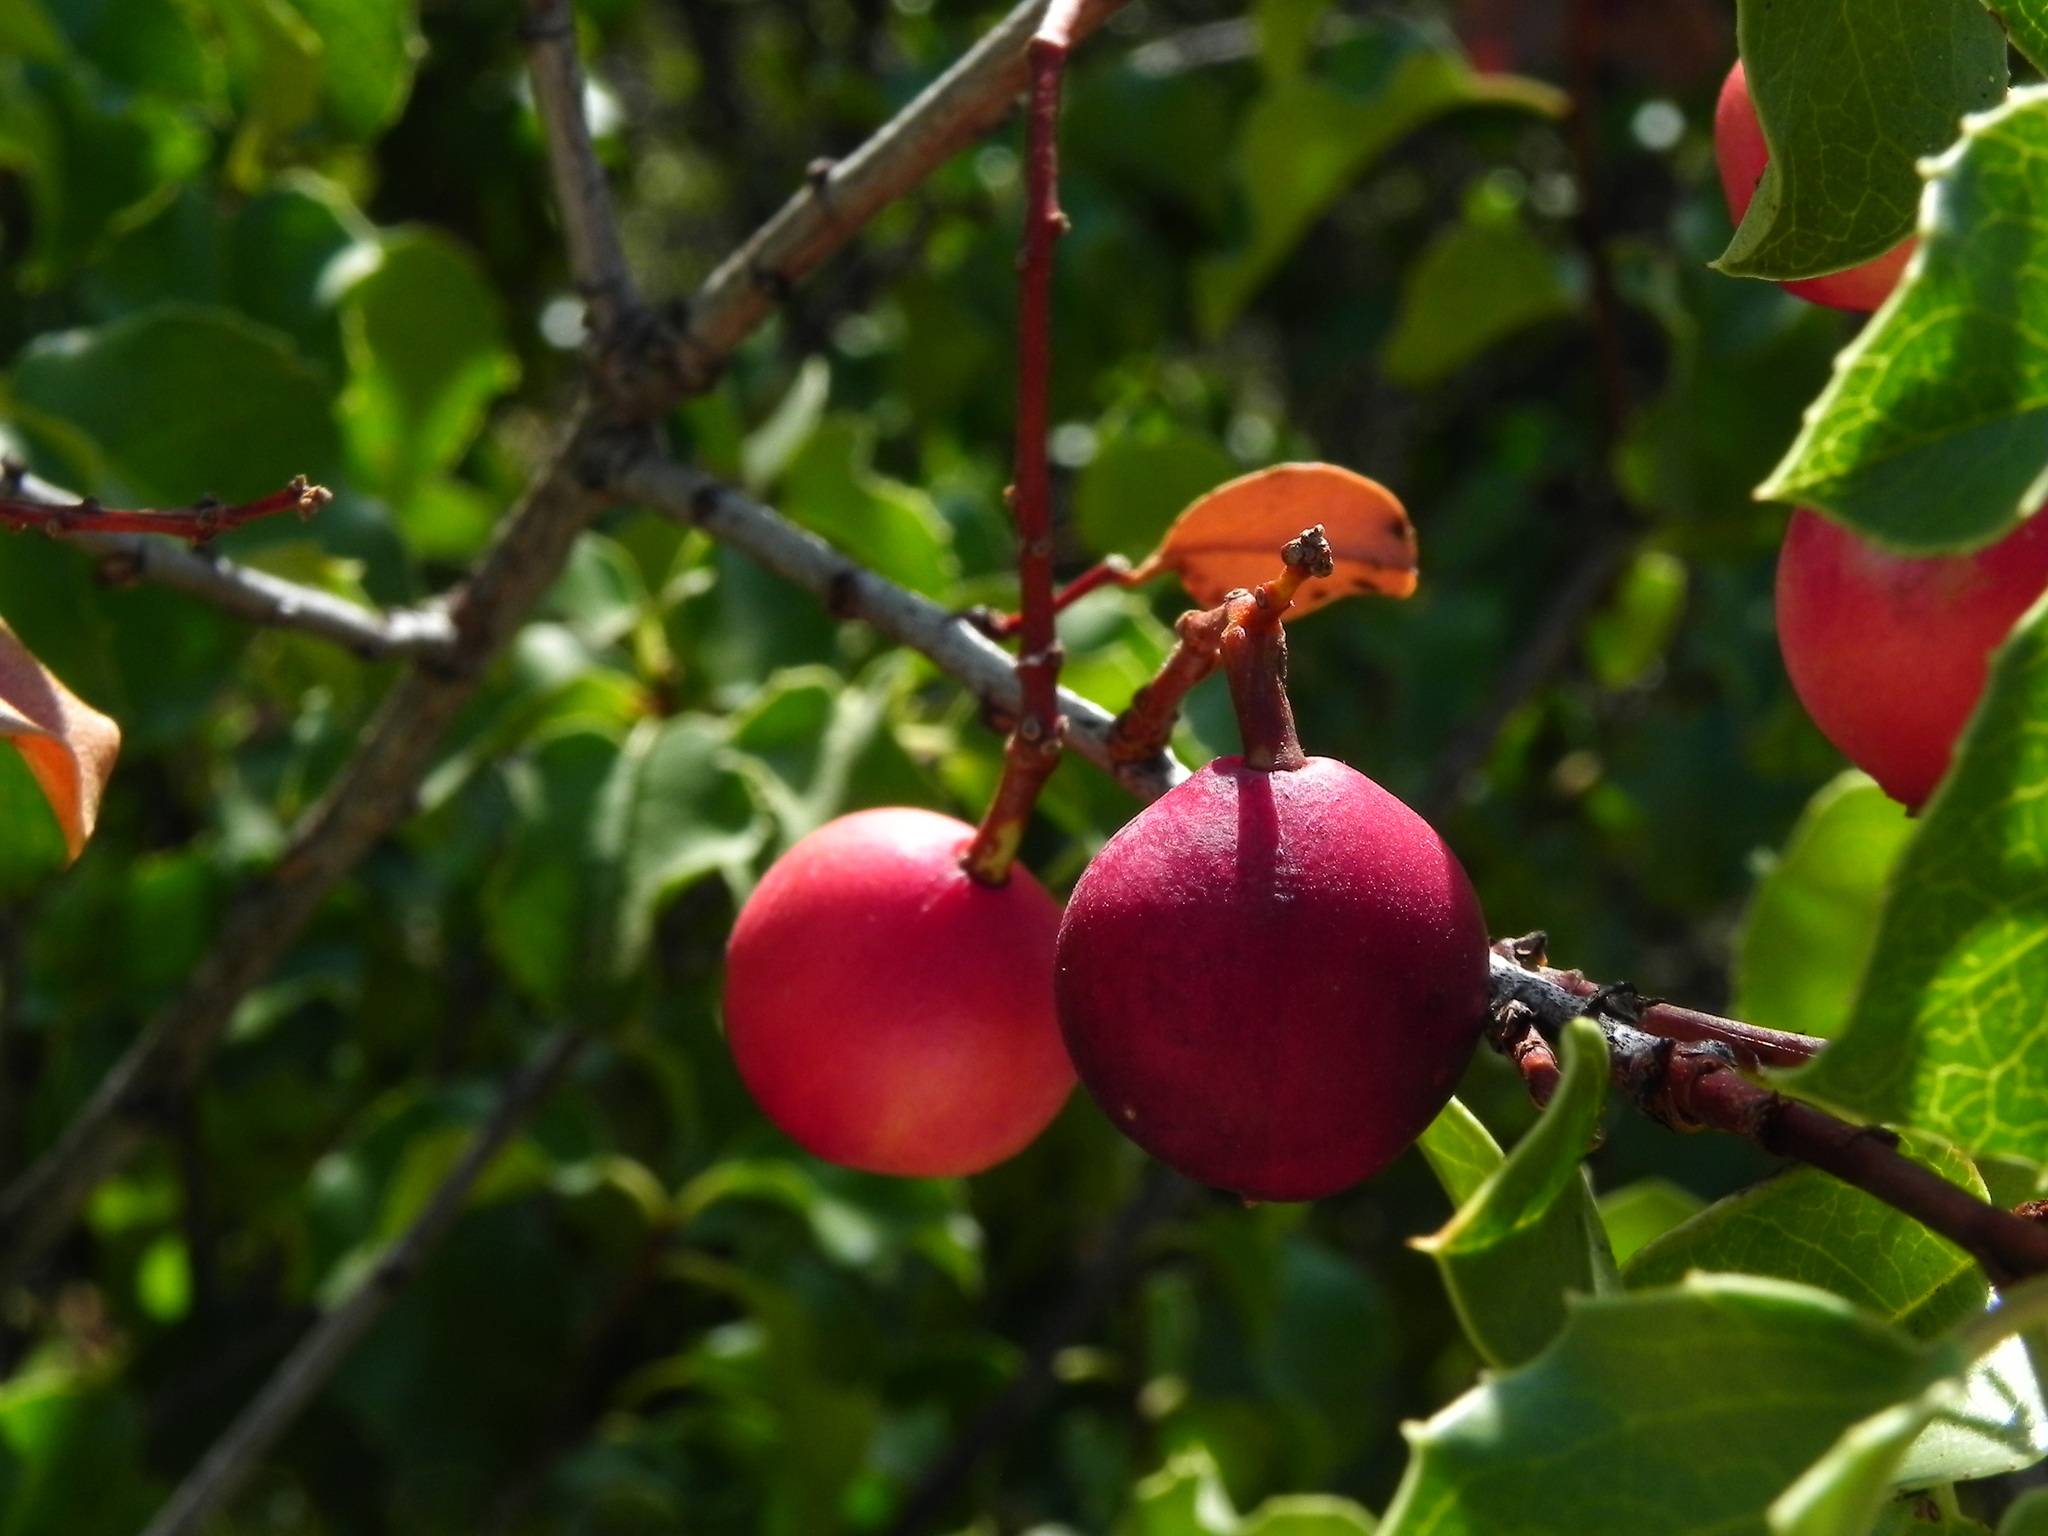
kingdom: Plantae
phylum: Tracheophyta
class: Magnoliopsida
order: Rosales
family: Rosaceae
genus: Prunus
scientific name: Prunus ilicifolia
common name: Hollyleaf cherry
